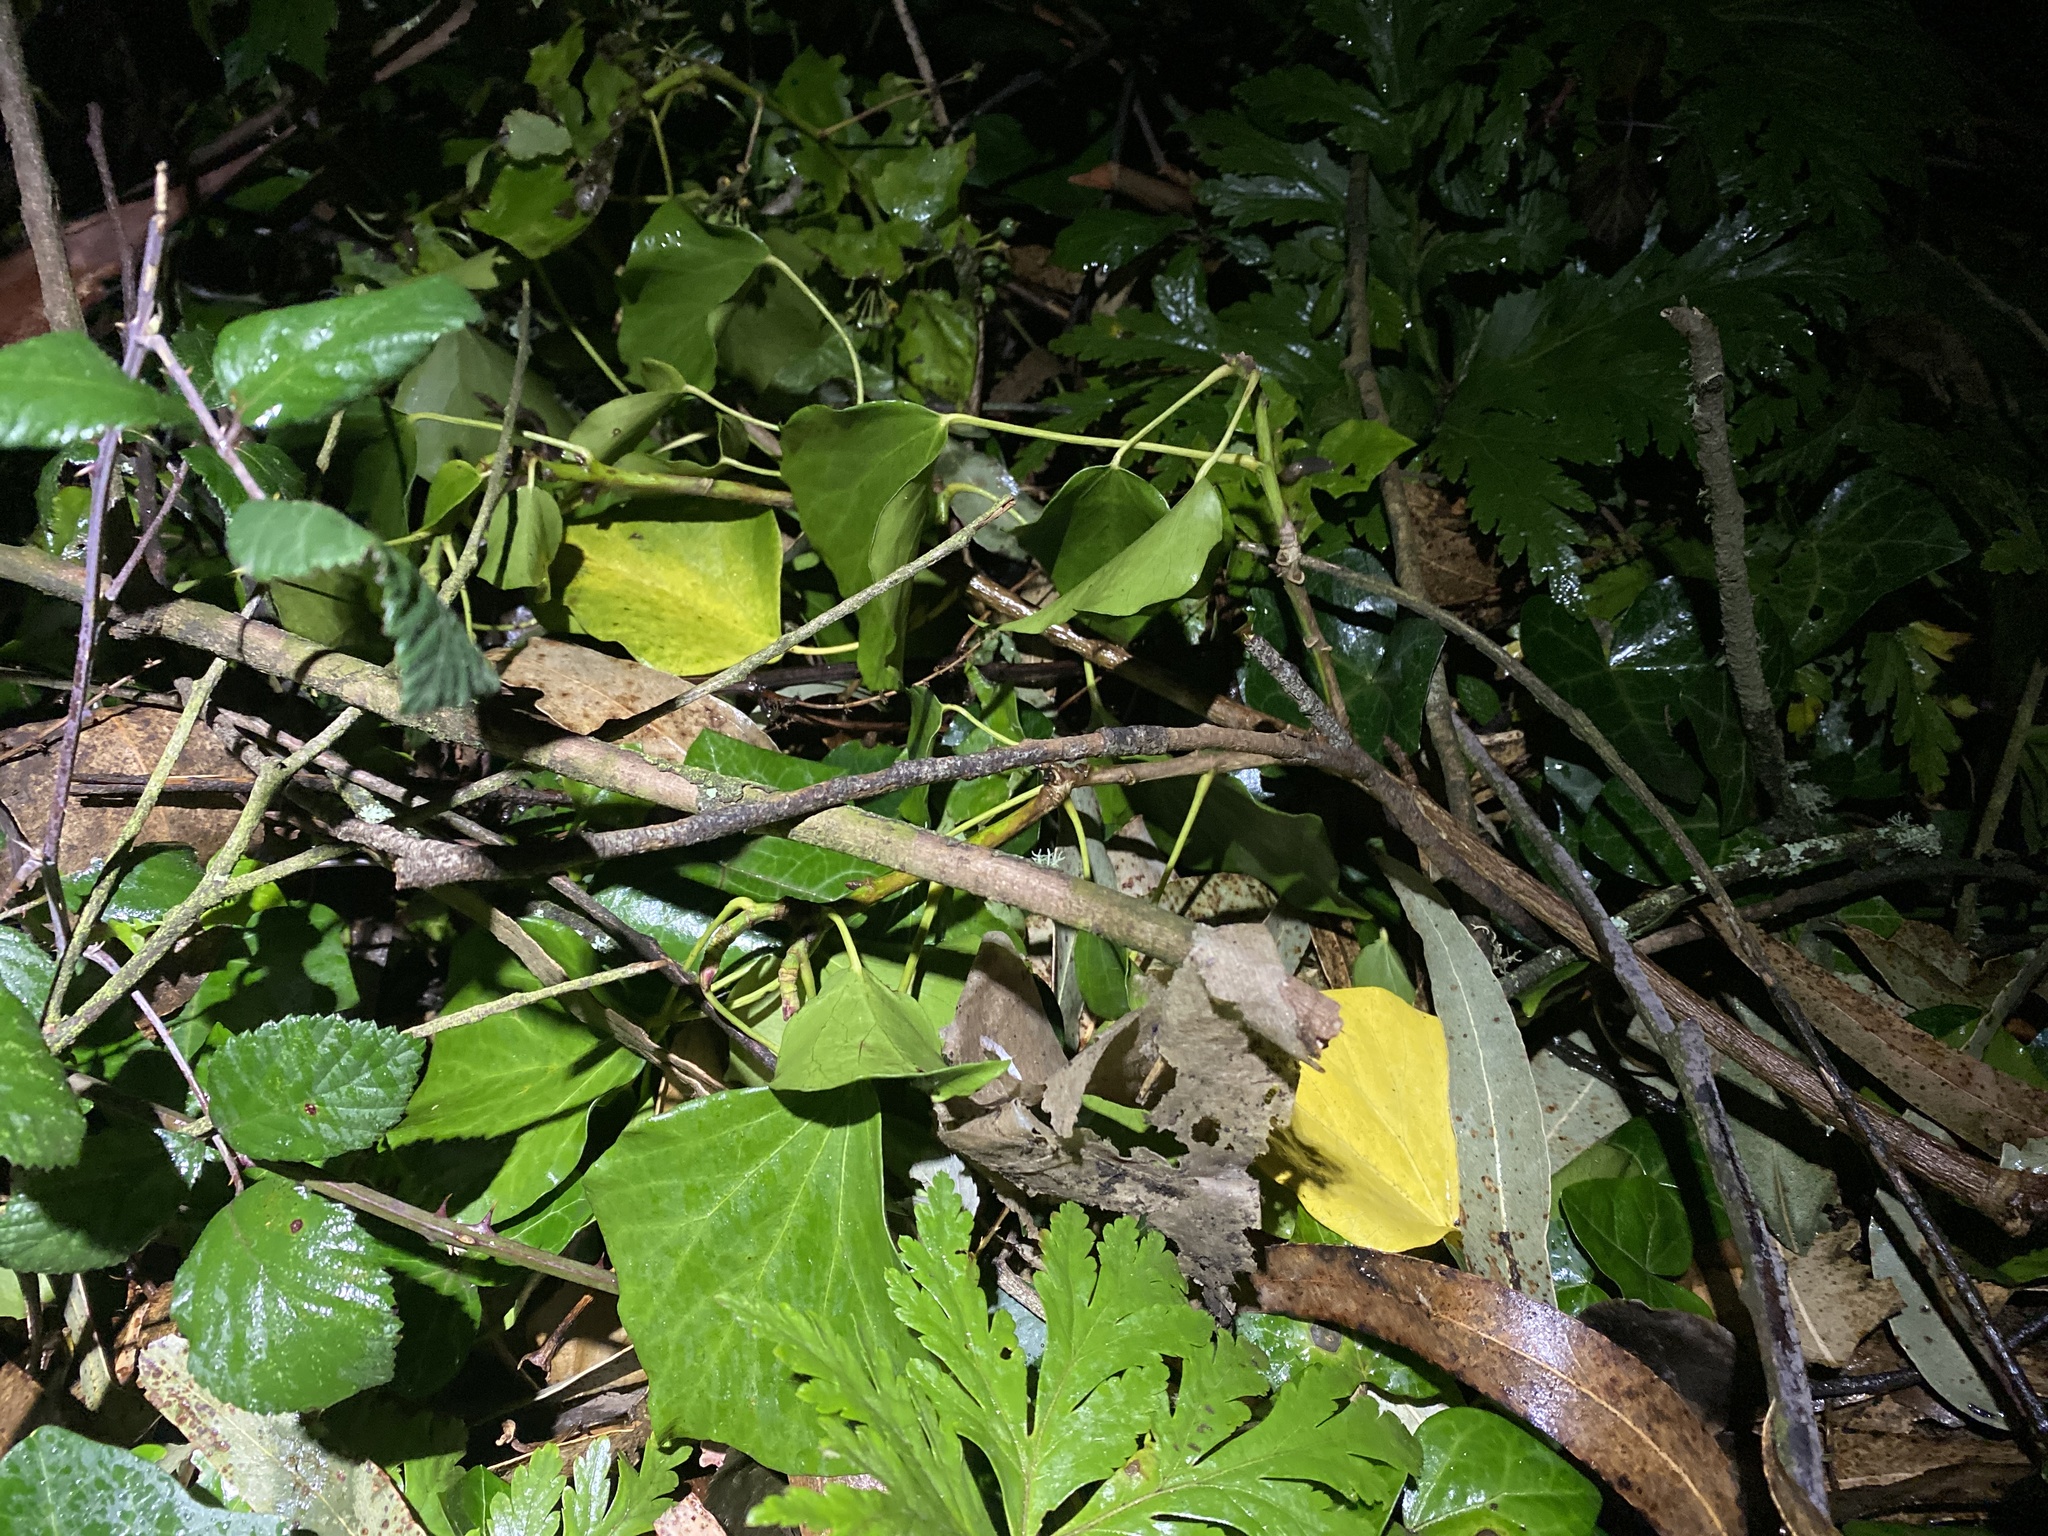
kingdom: Plantae
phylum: Tracheophyta
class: Magnoliopsida
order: Apiales
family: Araliaceae
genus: Hedera
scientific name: Hedera helix
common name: Ivy
